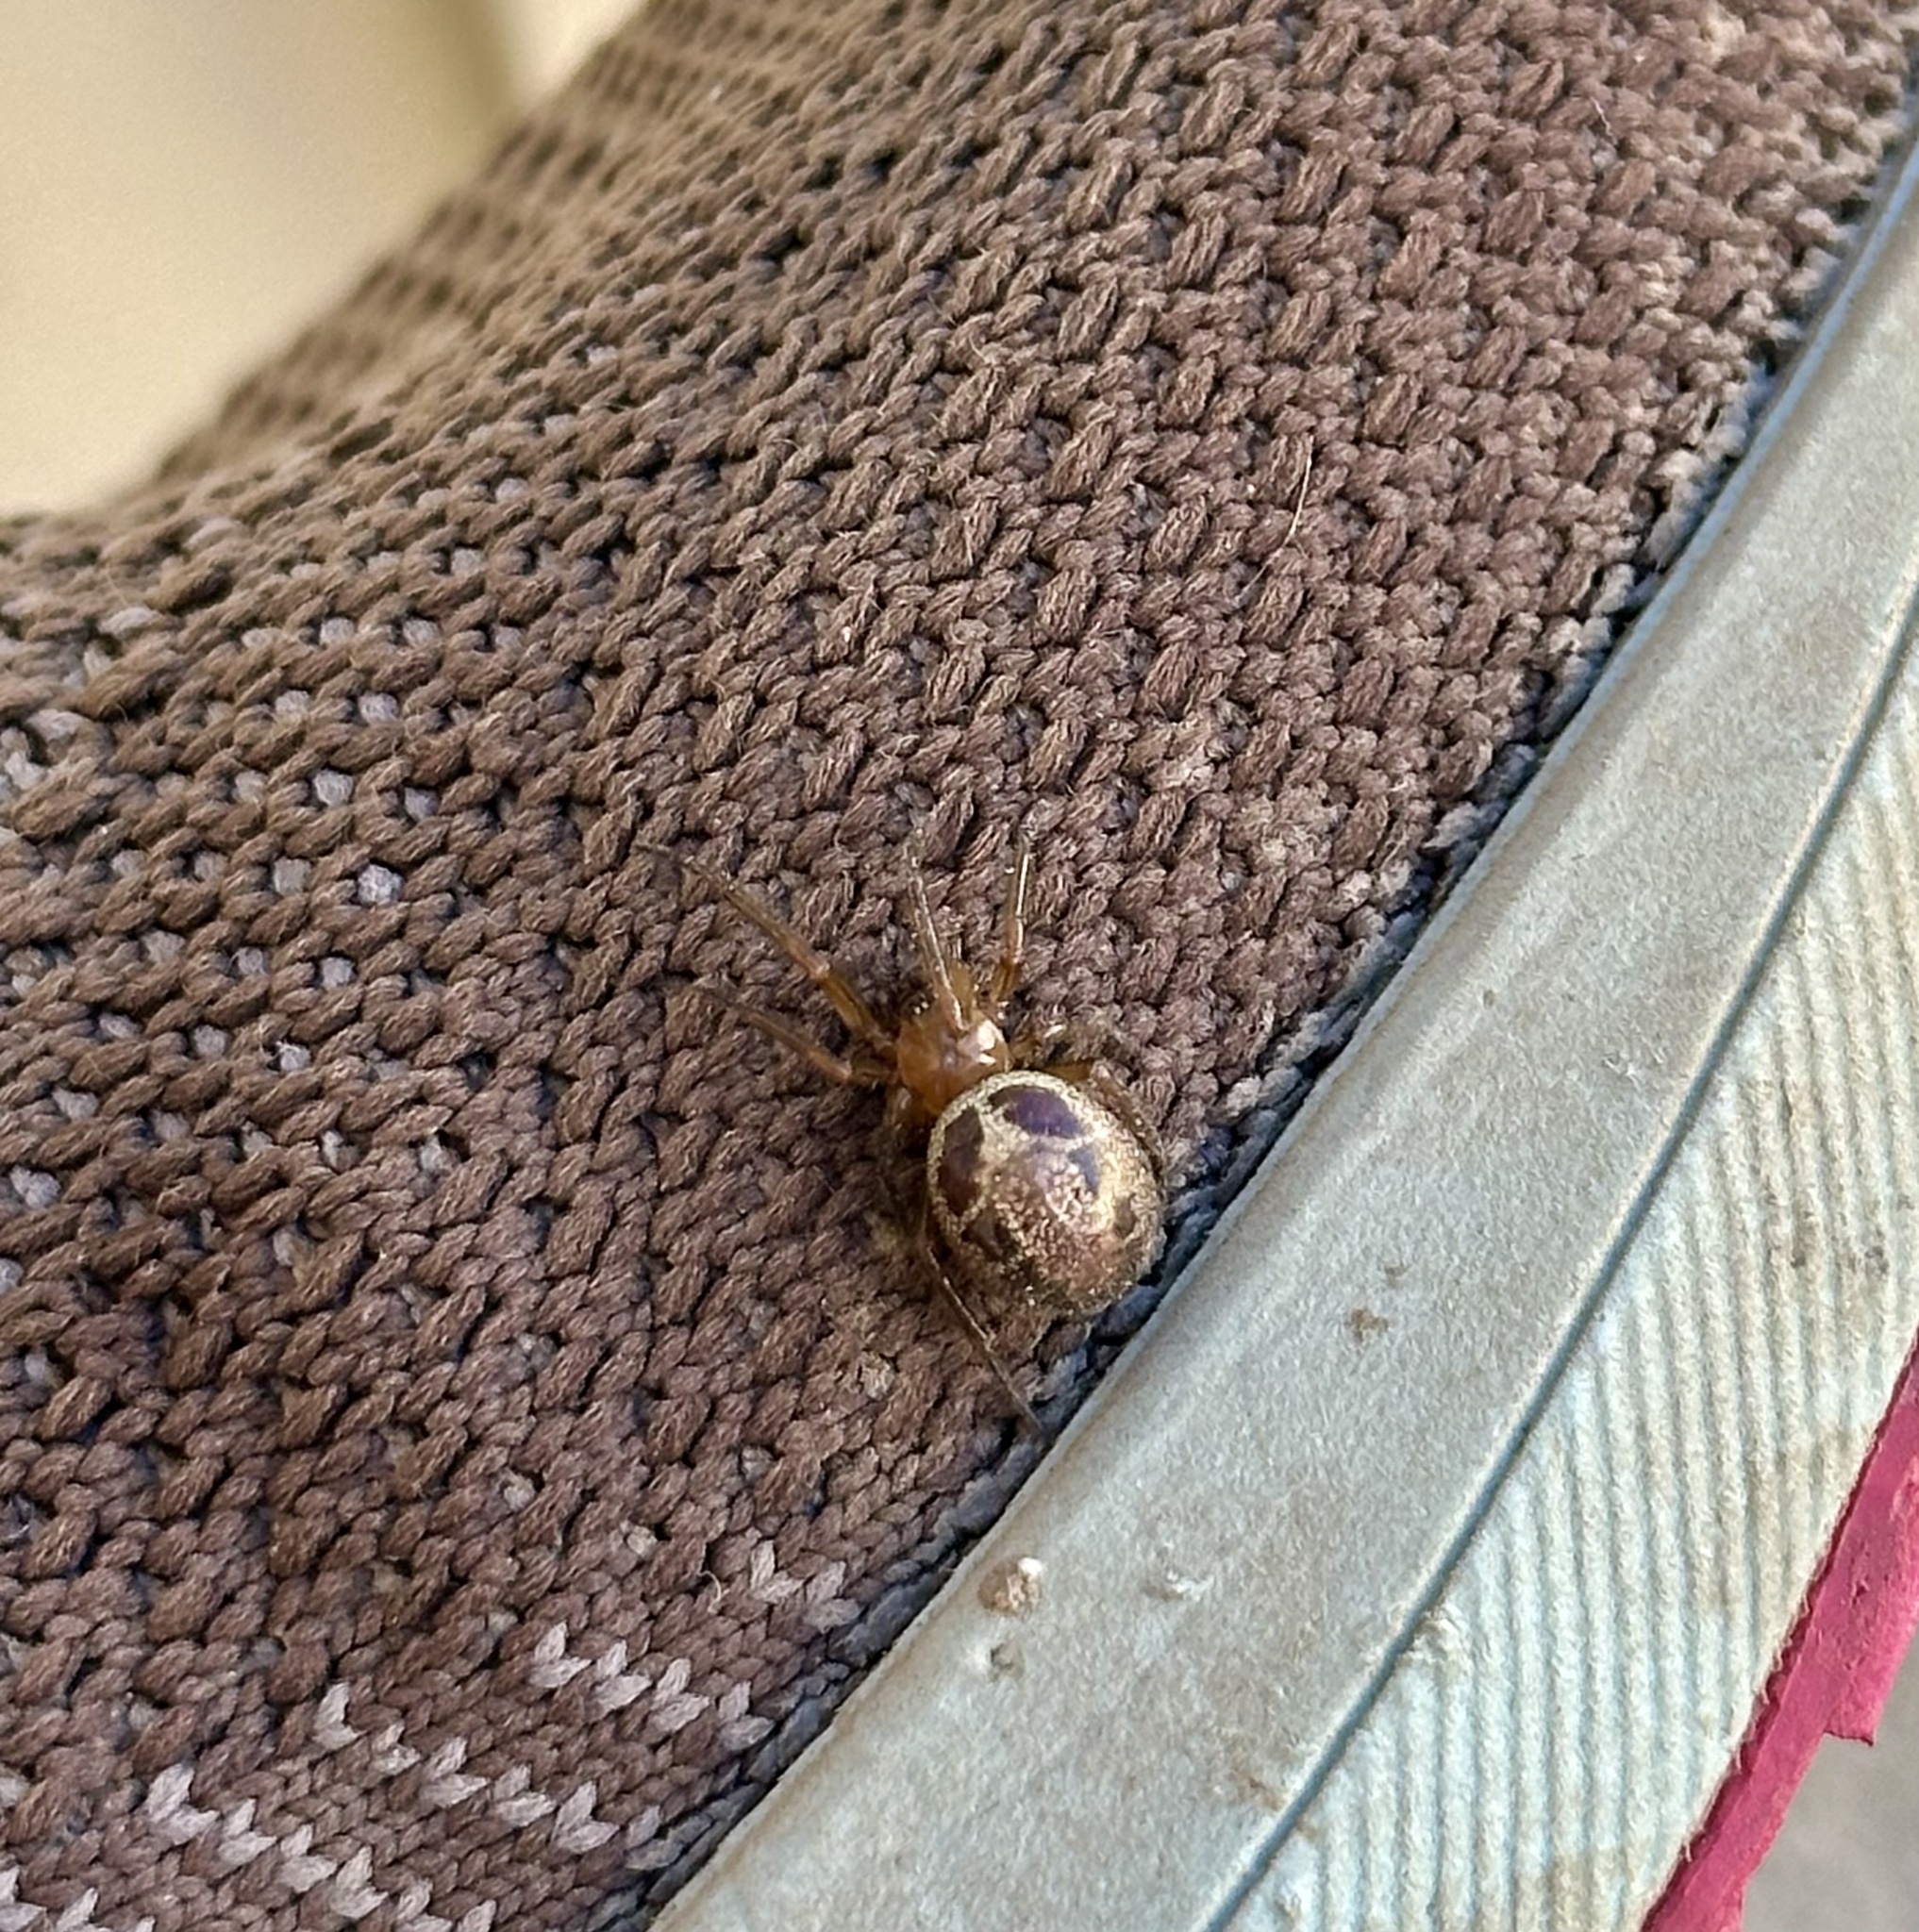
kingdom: Animalia
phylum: Arthropoda
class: Arachnida
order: Araneae
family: Theridiidae
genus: Steatoda
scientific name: Steatoda nobilis
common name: Cobweb weaver
